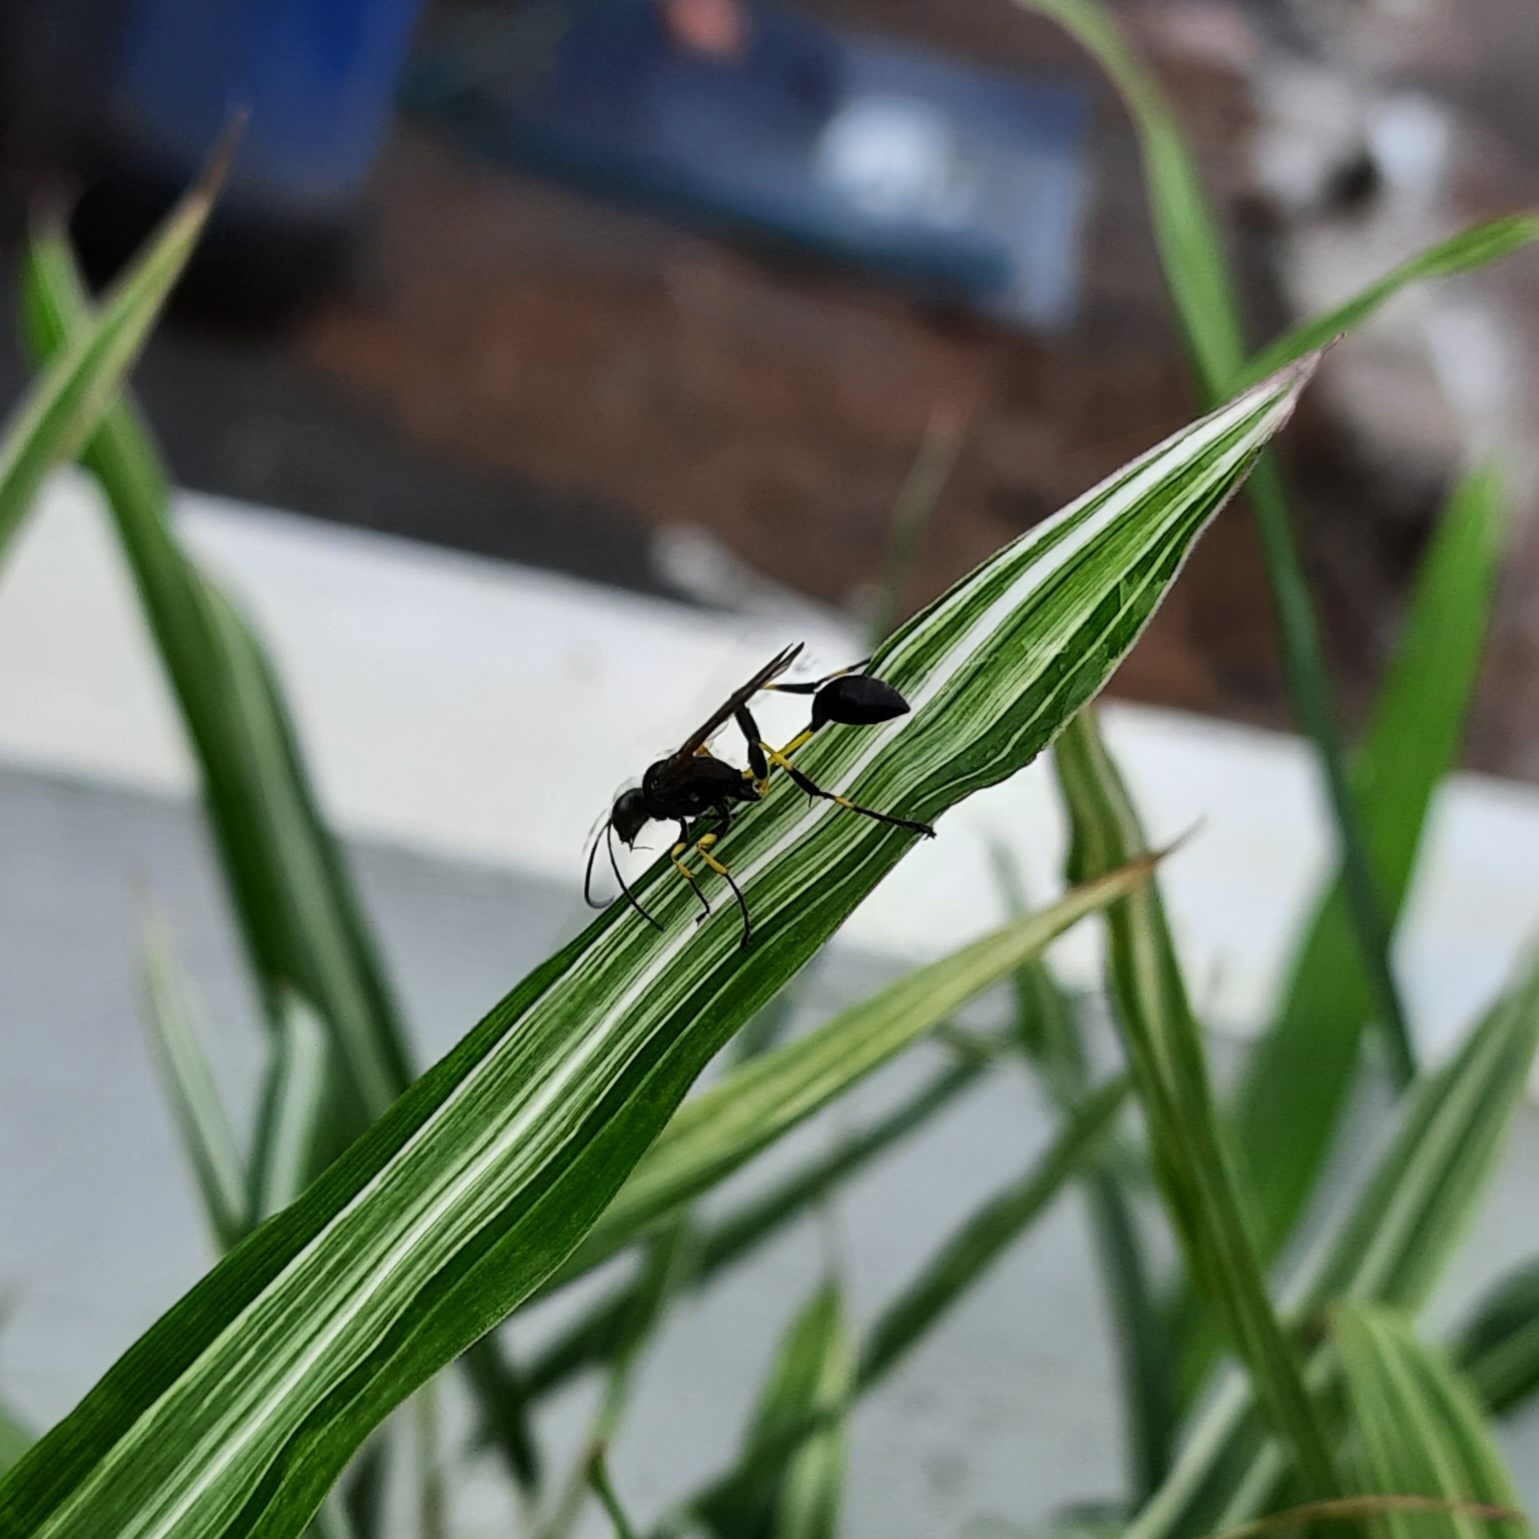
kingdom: Animalia
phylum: Arthropoda
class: Insecta
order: Hymenoptera
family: Sphecidae
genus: Sceliphron
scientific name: Sceliphron madraspatanum
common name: Mud dauber
